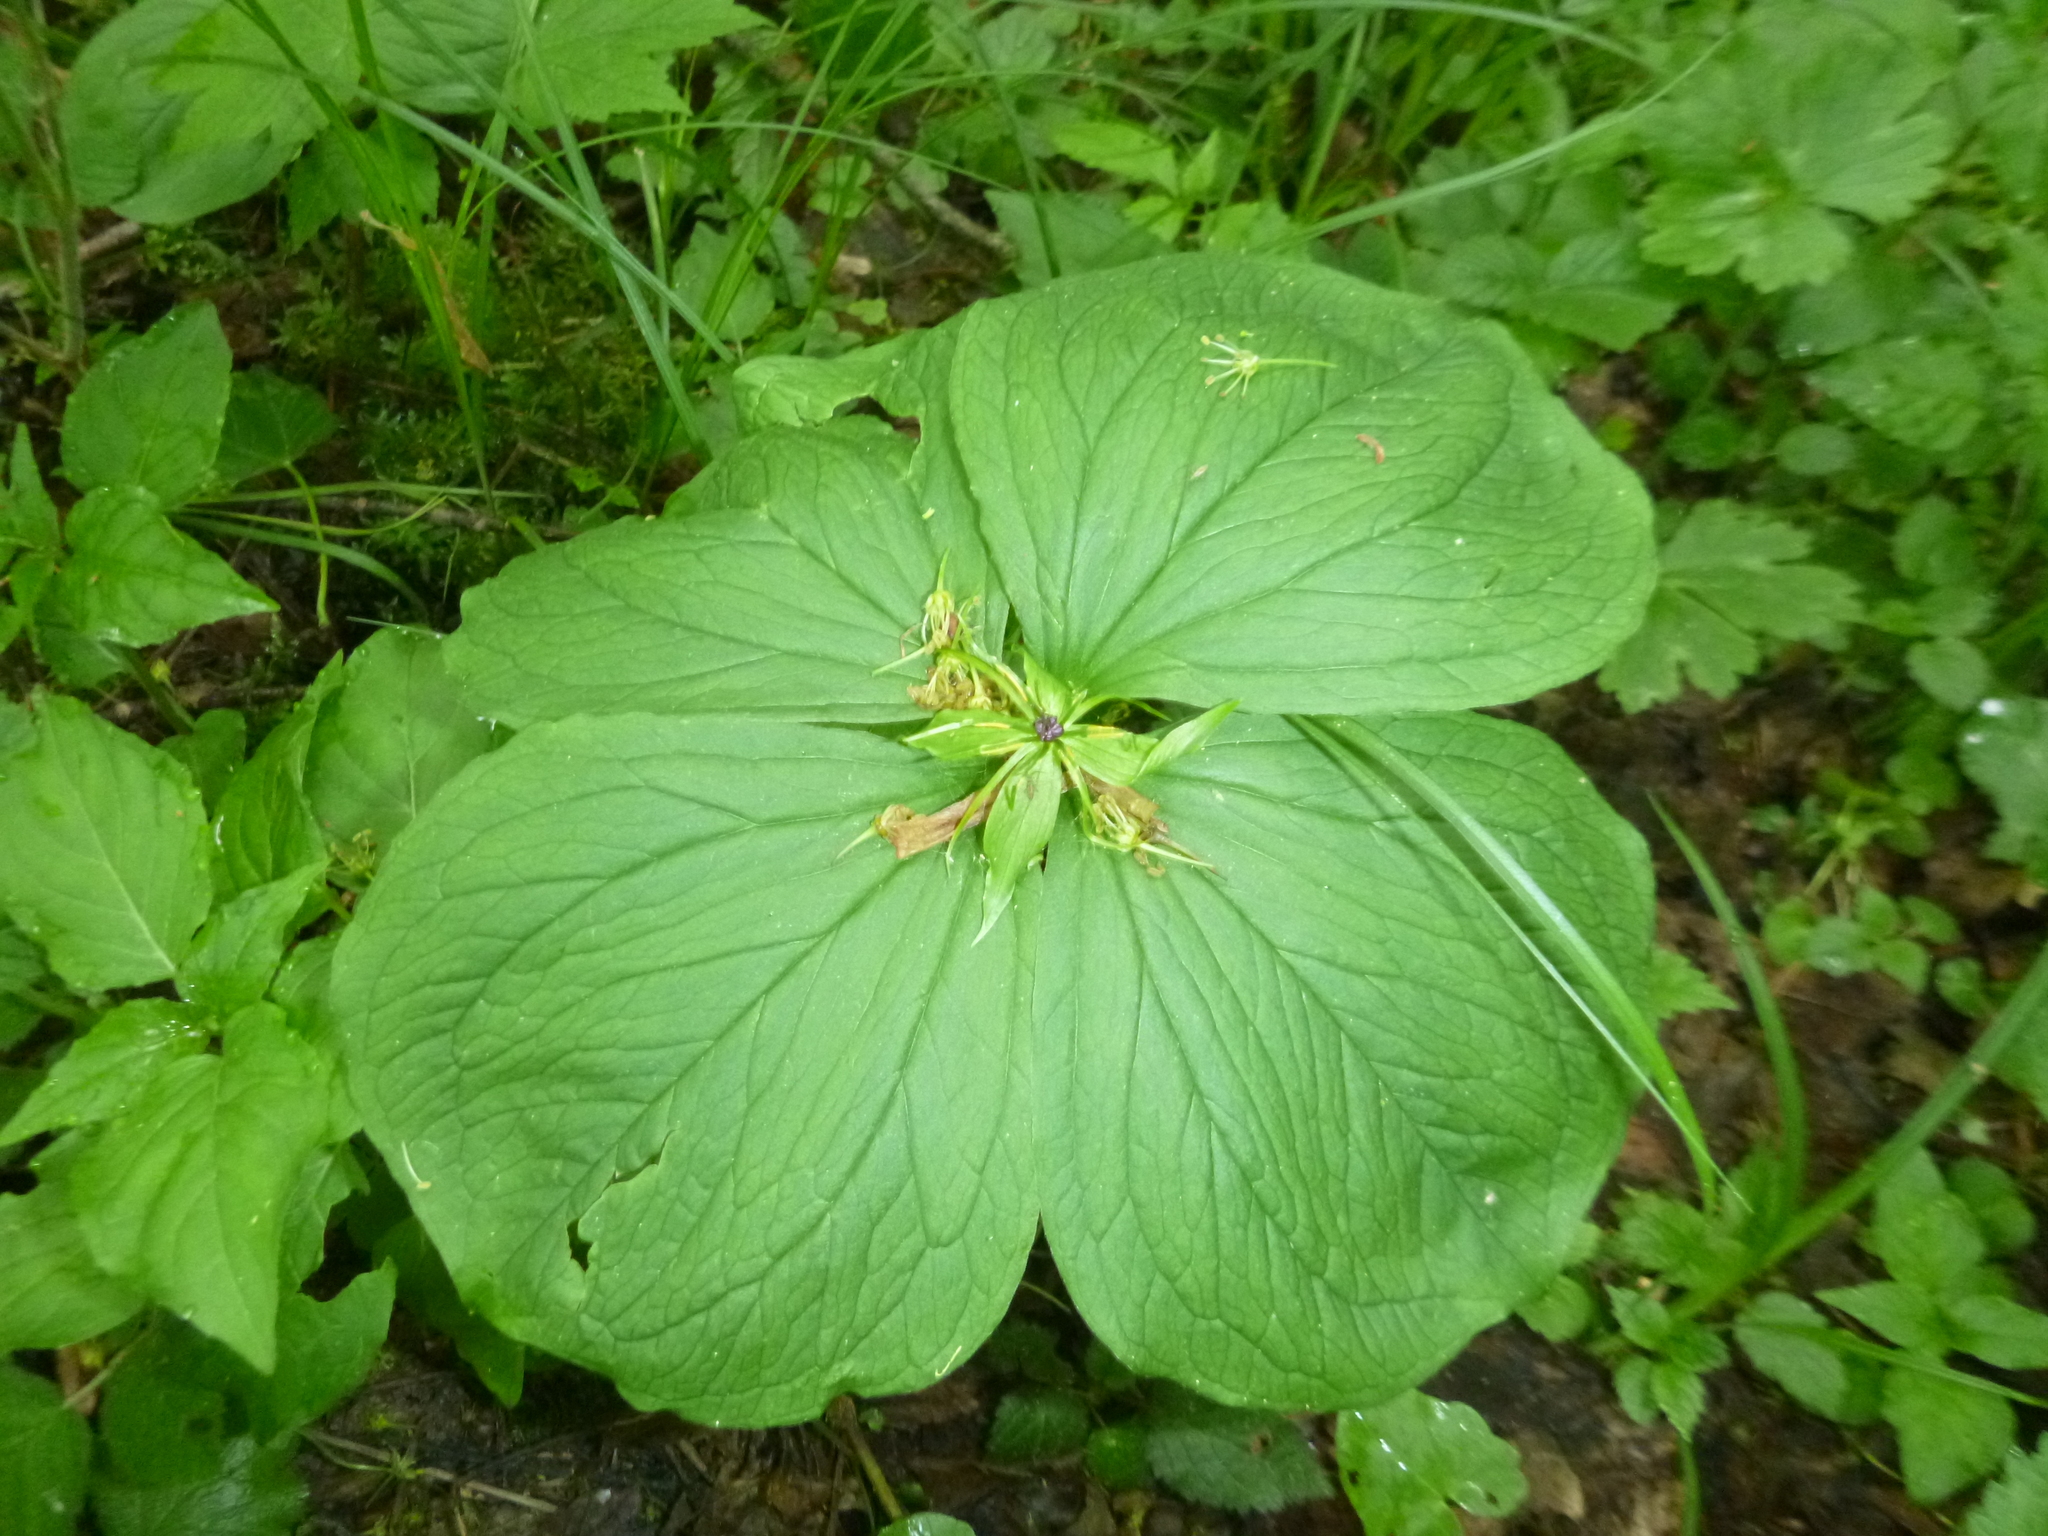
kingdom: Plantae
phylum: Tracheophyta
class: Liliopsida
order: Liliales
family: Melanthiaceae
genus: Paris
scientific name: Paris quadrifolia
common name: Herb-paris
